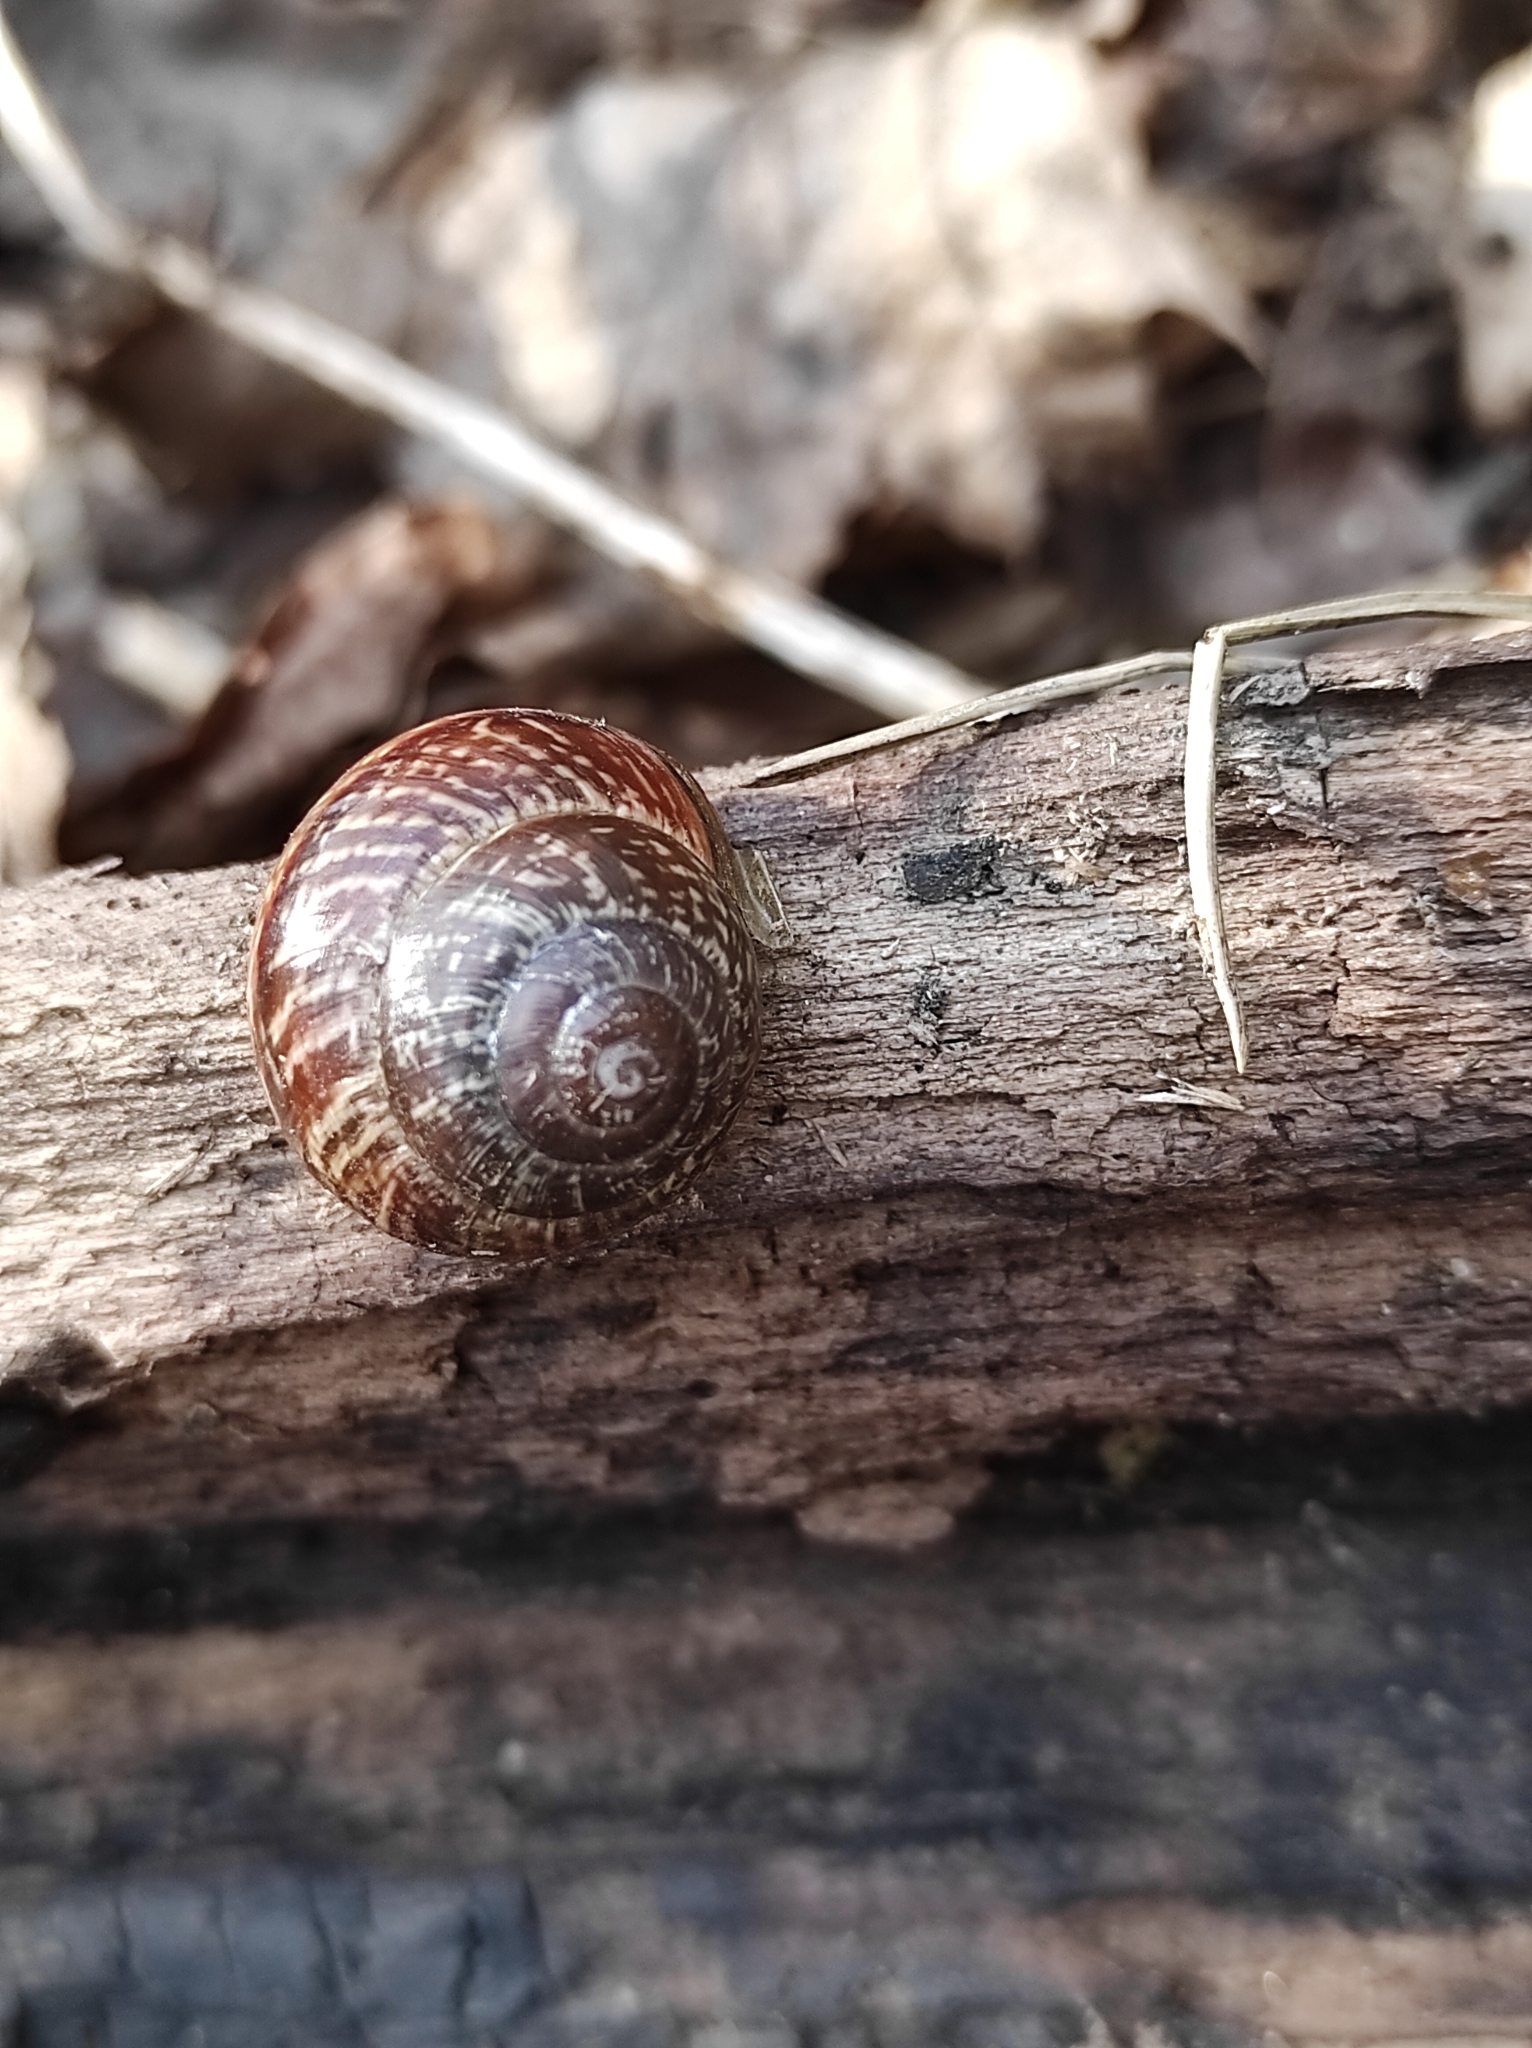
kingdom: Animalia
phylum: Mollusca
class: Gastropoda
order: Stylommatophora
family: Helicidae
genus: Arianta
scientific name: Arianta arbustorum
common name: Copse snail
